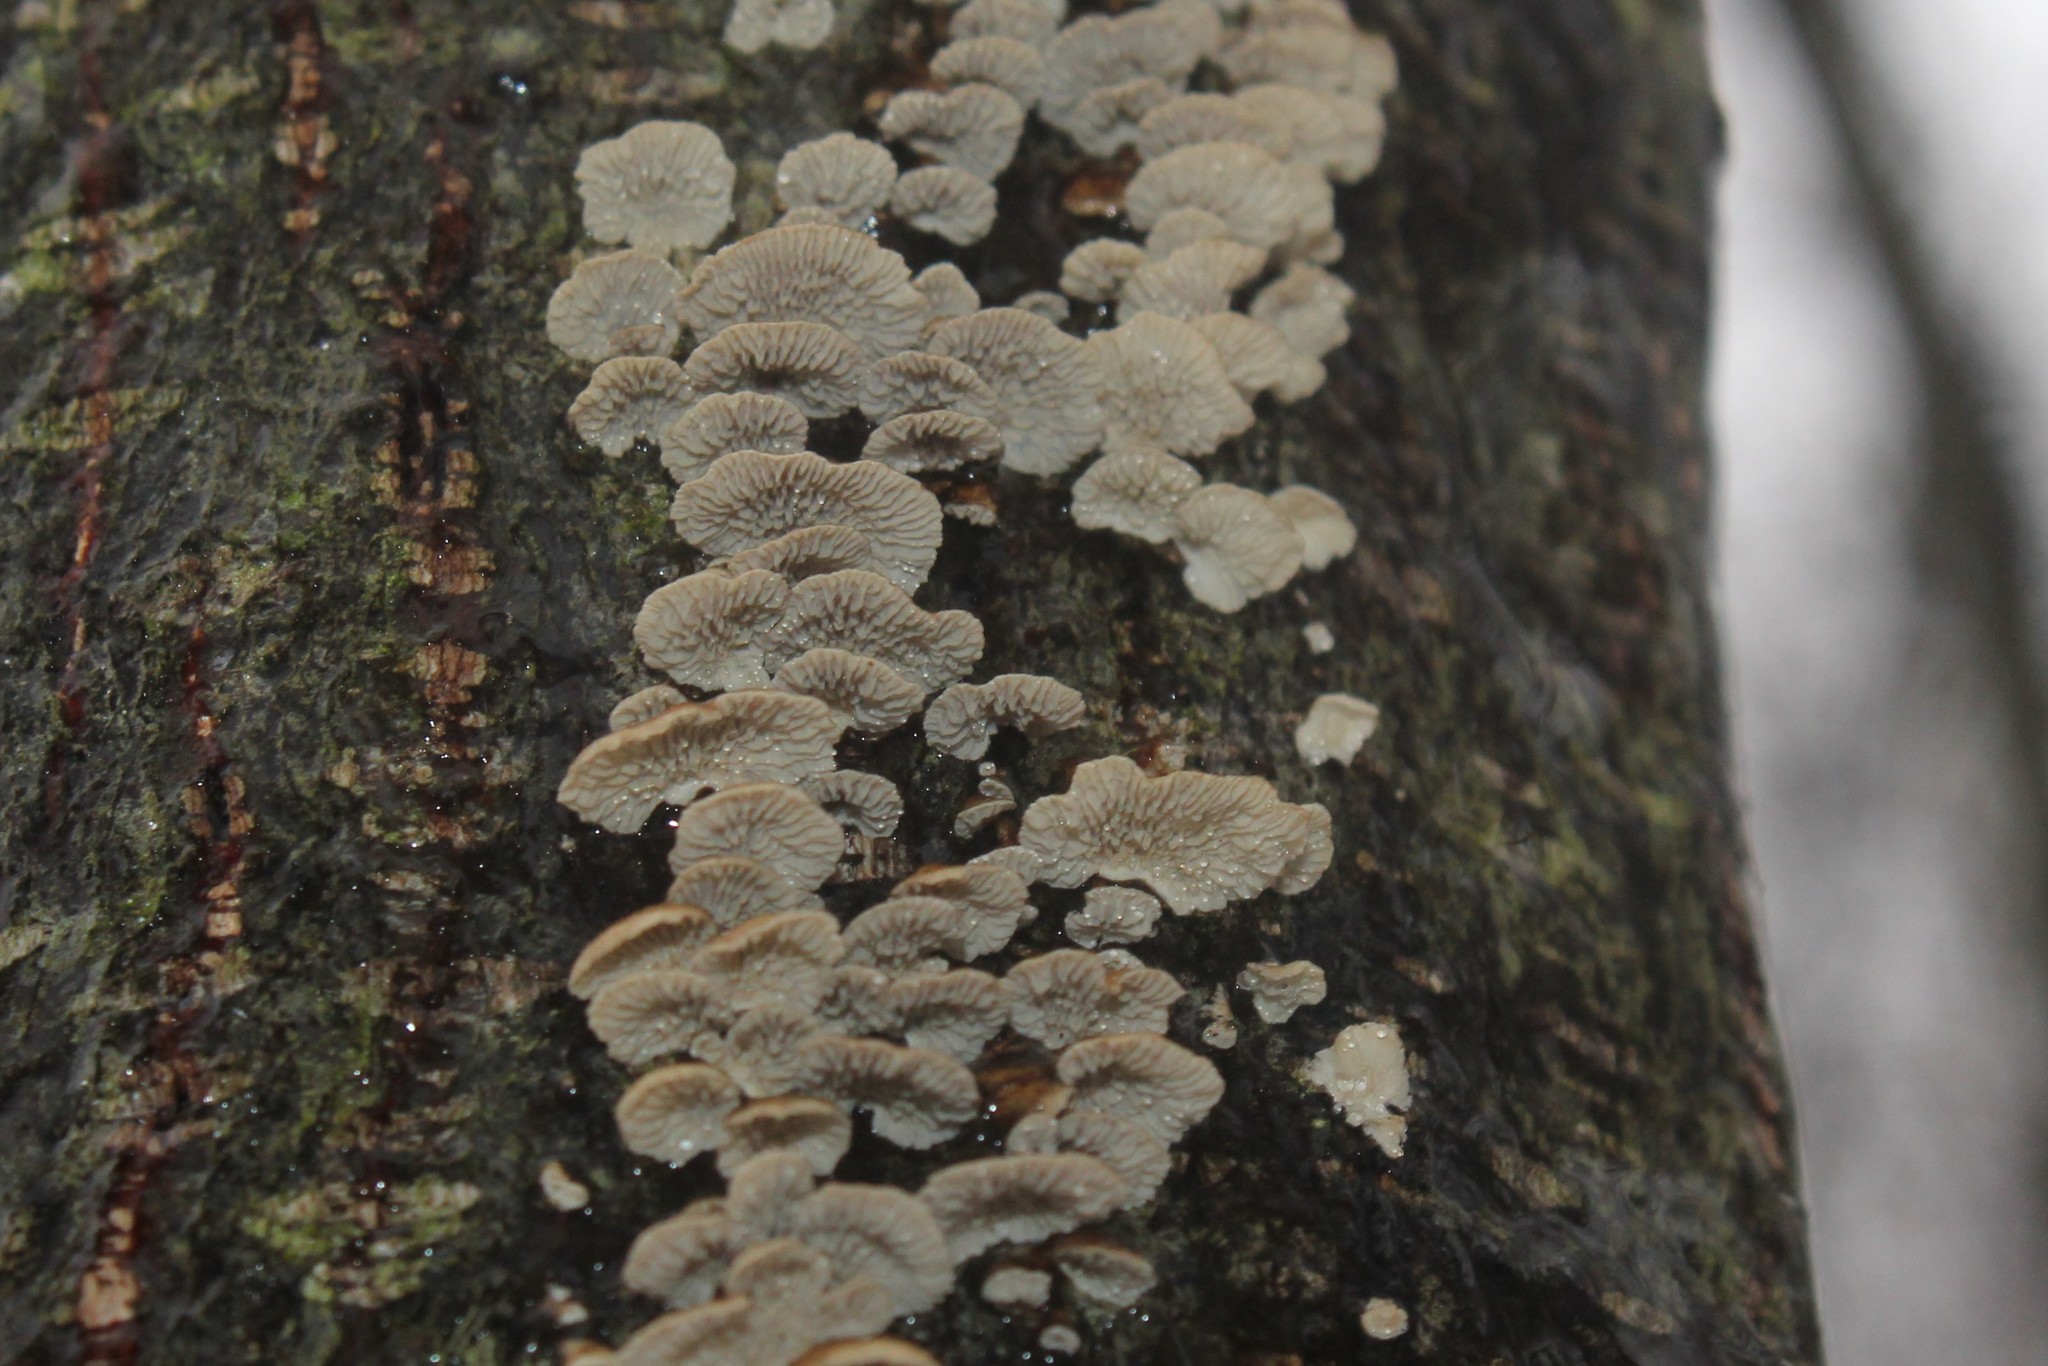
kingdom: Fungi
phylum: Basidiomycota
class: Agaricomycetes
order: Amylocorticiales
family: Amylocorticiaceae
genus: Plicaturopsis
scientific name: Plicaturopsis crispa
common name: Crimped gill
